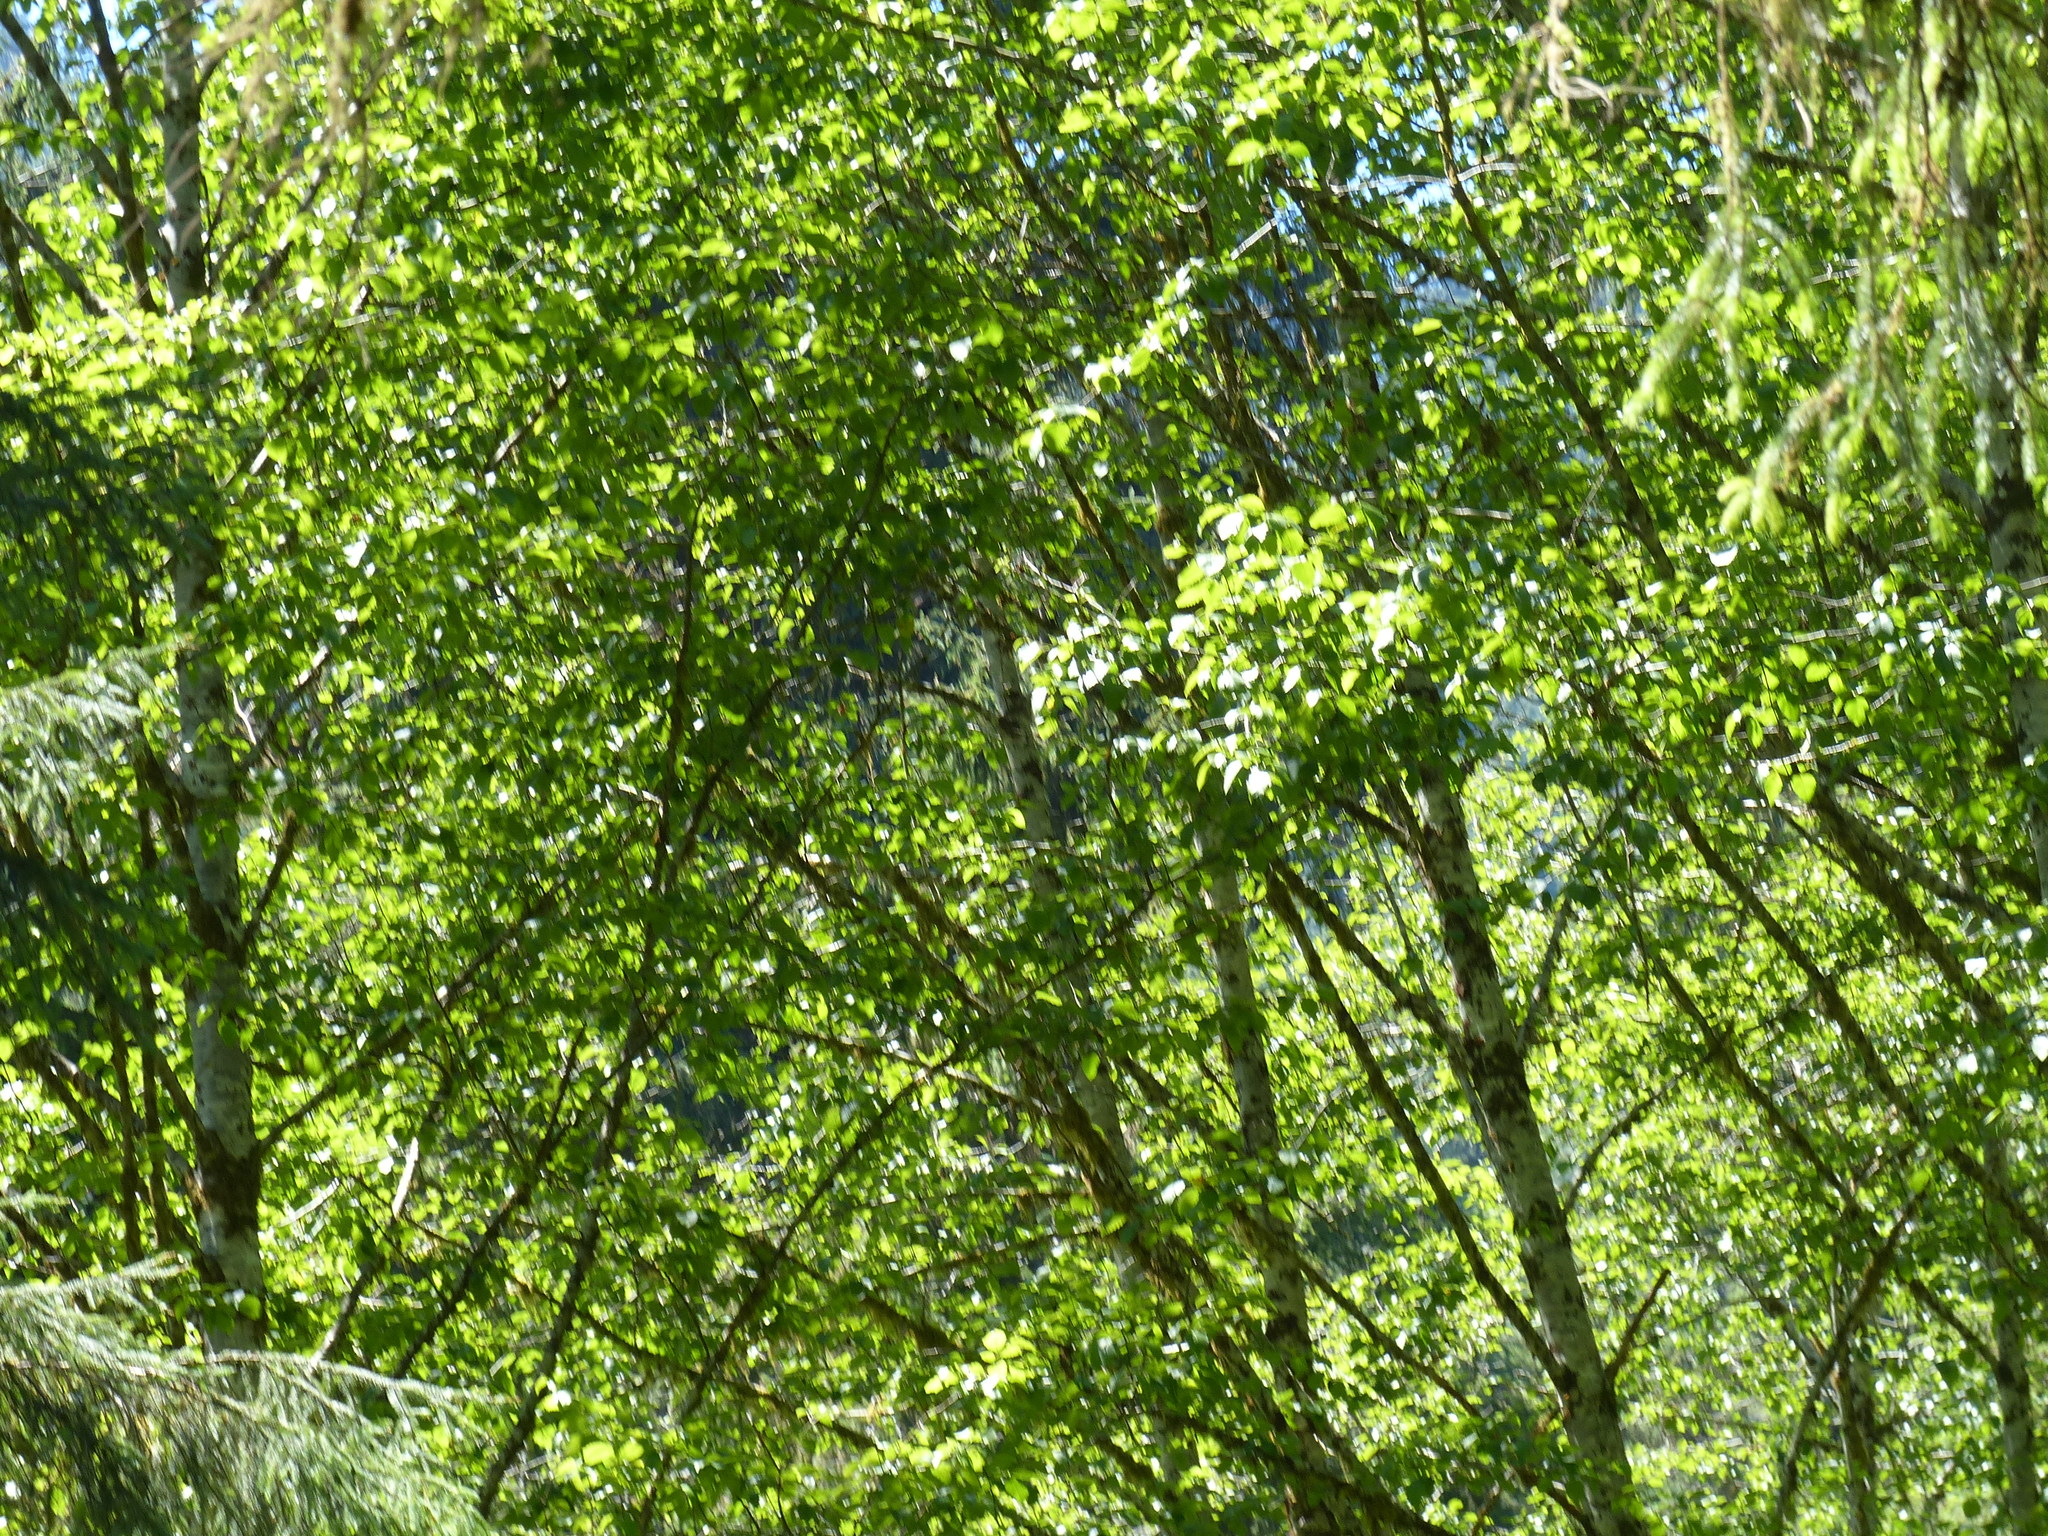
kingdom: Plantae
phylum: Tracheophyta
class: Magnoliopsida
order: Fagales
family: Betulaceae
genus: Alnus
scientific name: Alnus rubra
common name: Red alder
